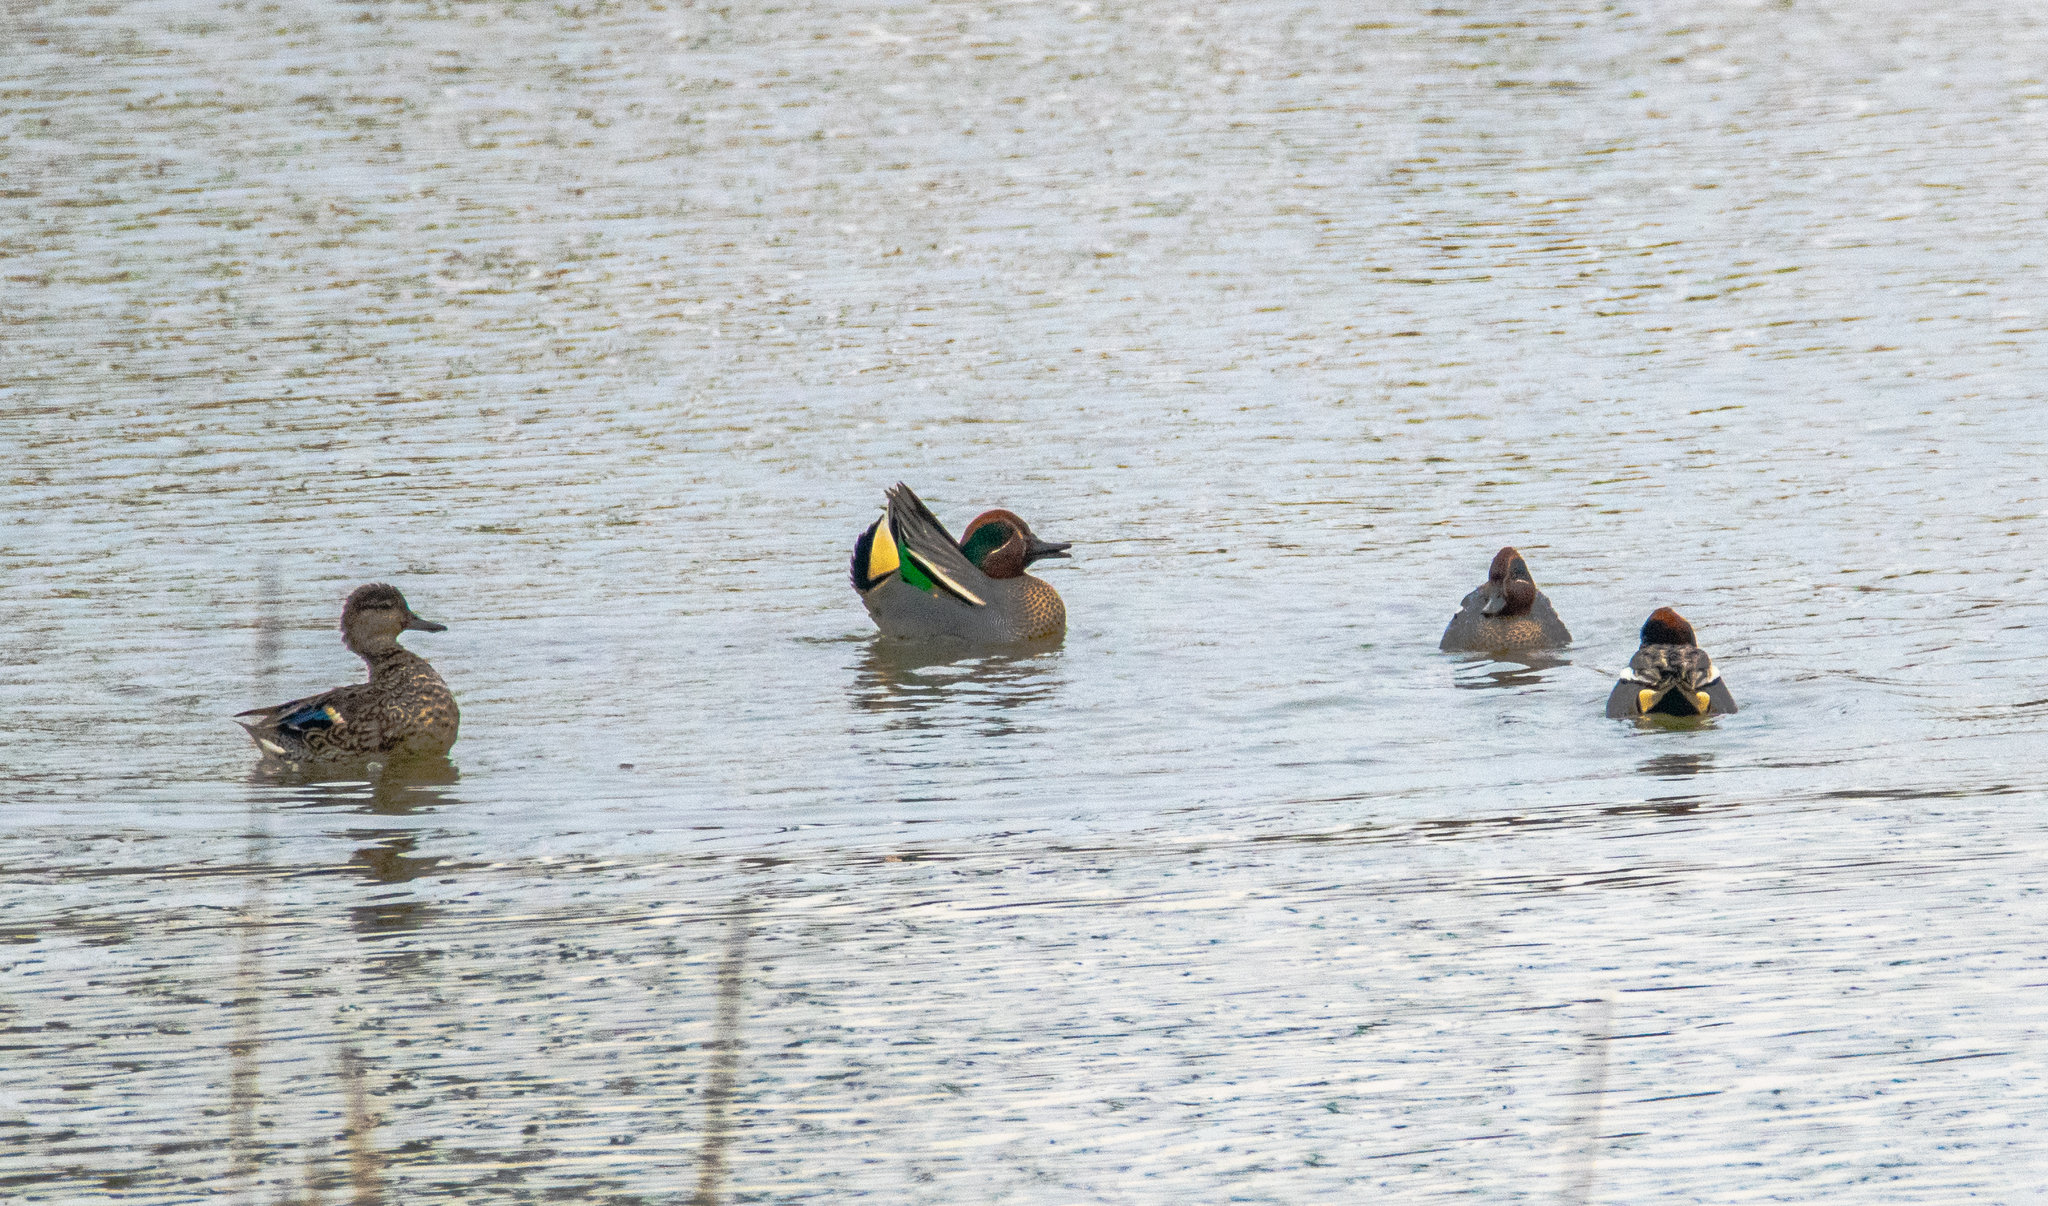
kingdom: Animalia
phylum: Chordata
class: Aves
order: Anseriformes
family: Anatidae
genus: Anas
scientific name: Anas crecca
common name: Eurasian teal
